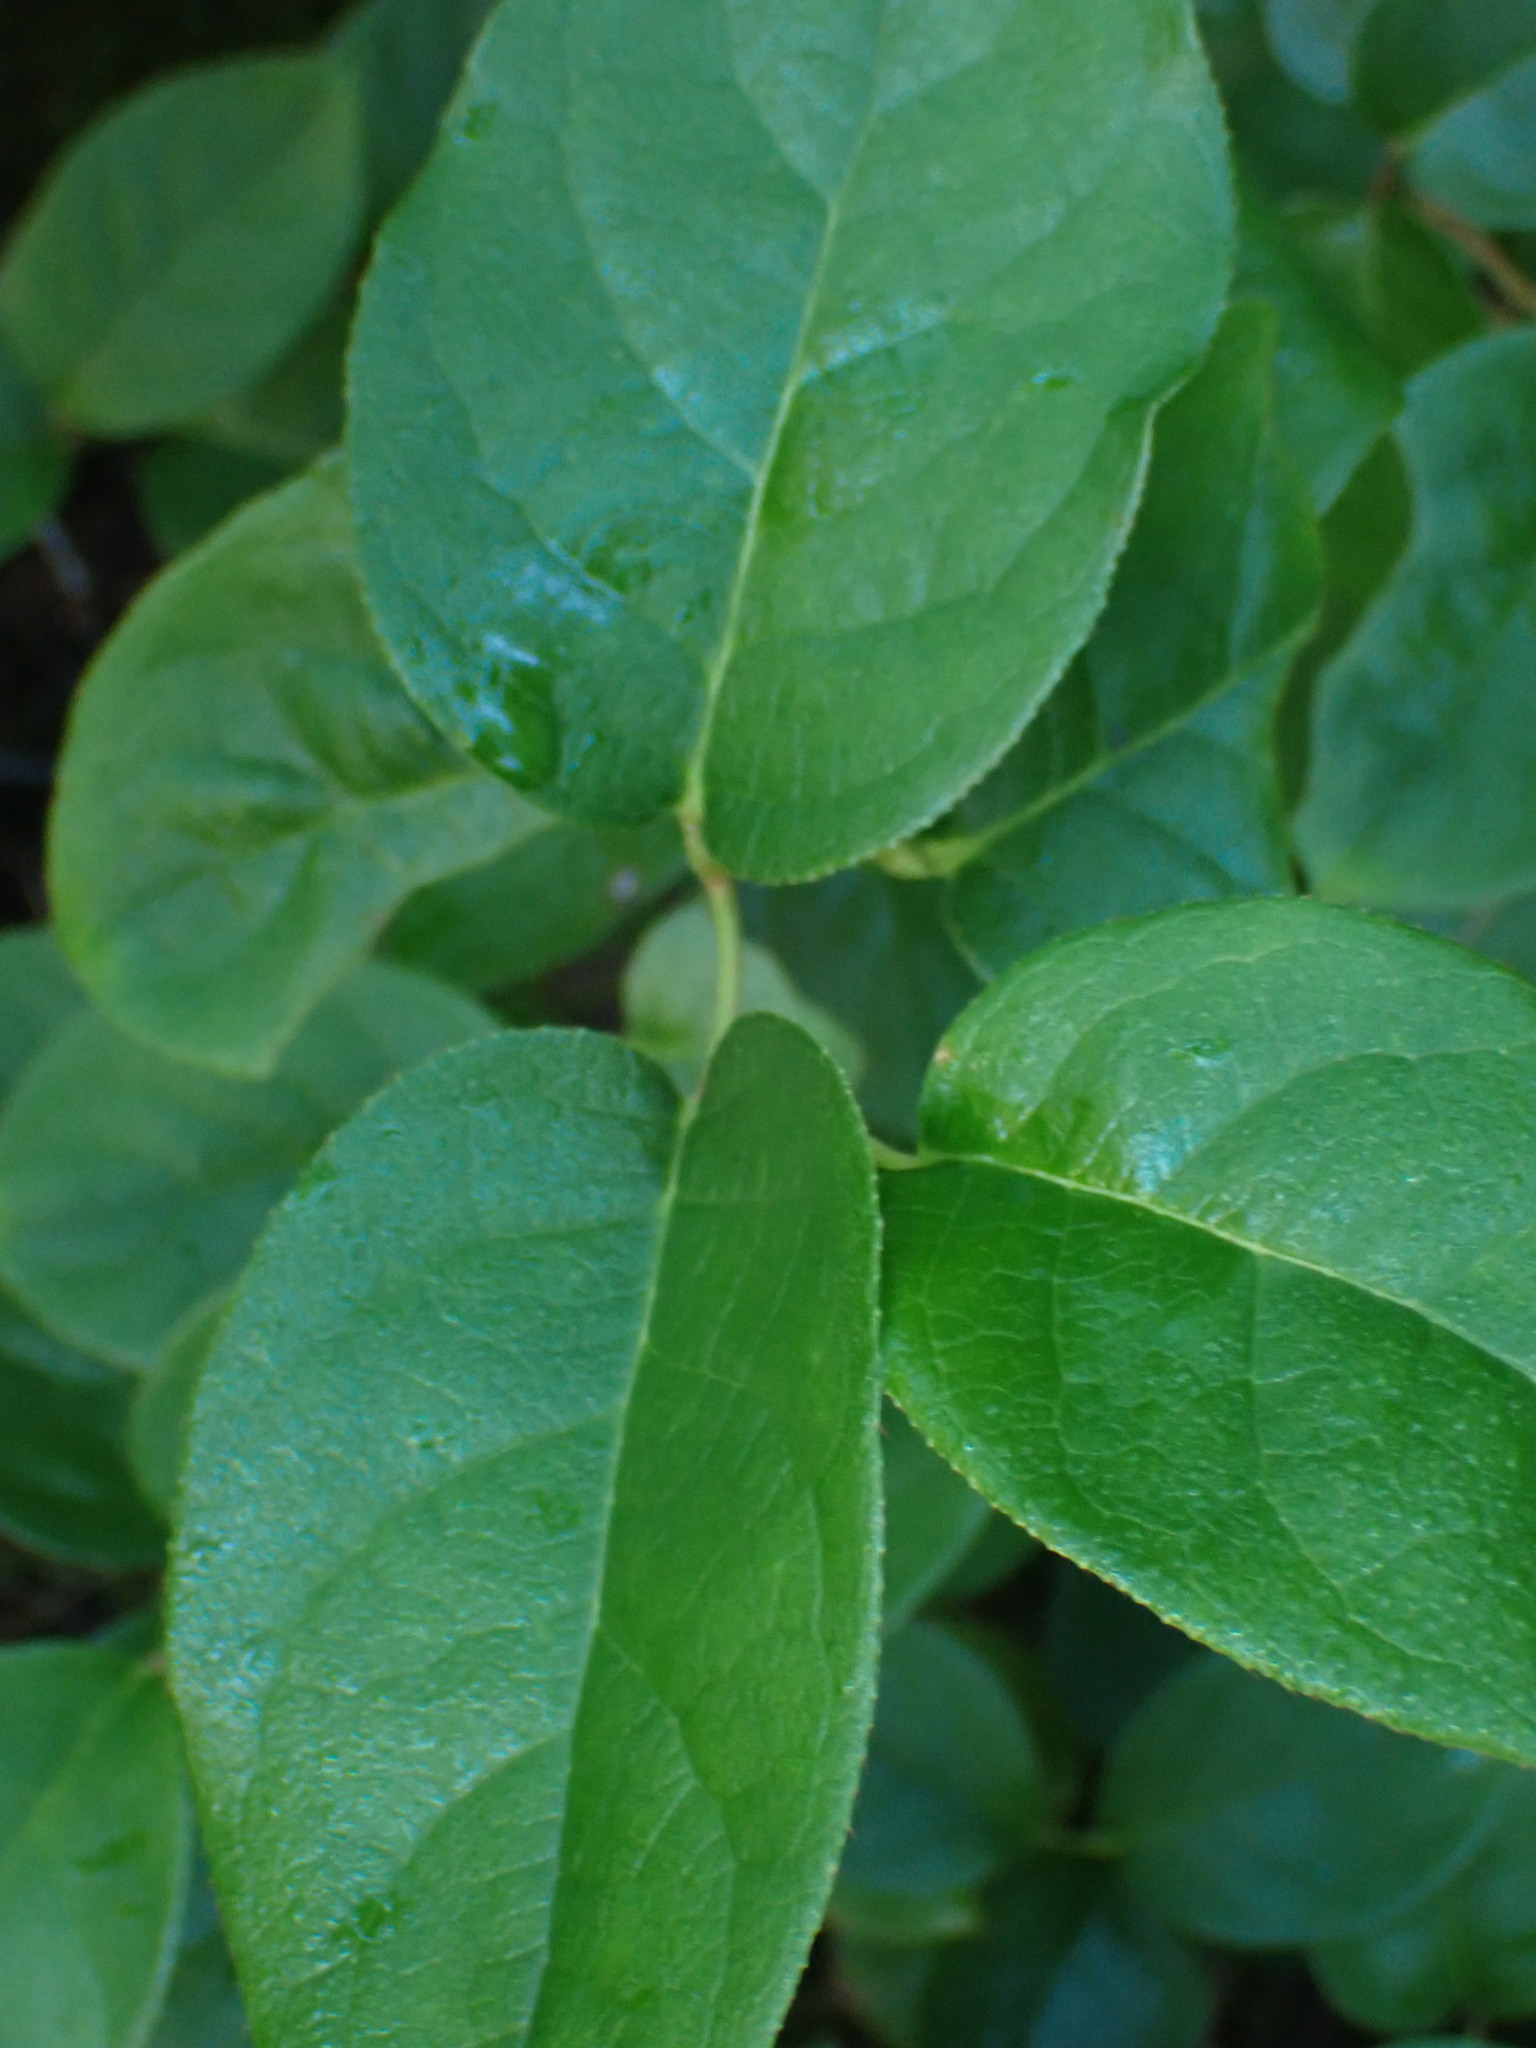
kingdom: Plantae
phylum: Tracheophyta
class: Magnoliopsida
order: Ericales
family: Ericaceae
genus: Gaultheria
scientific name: Gaultheria shallon
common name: Shallon
